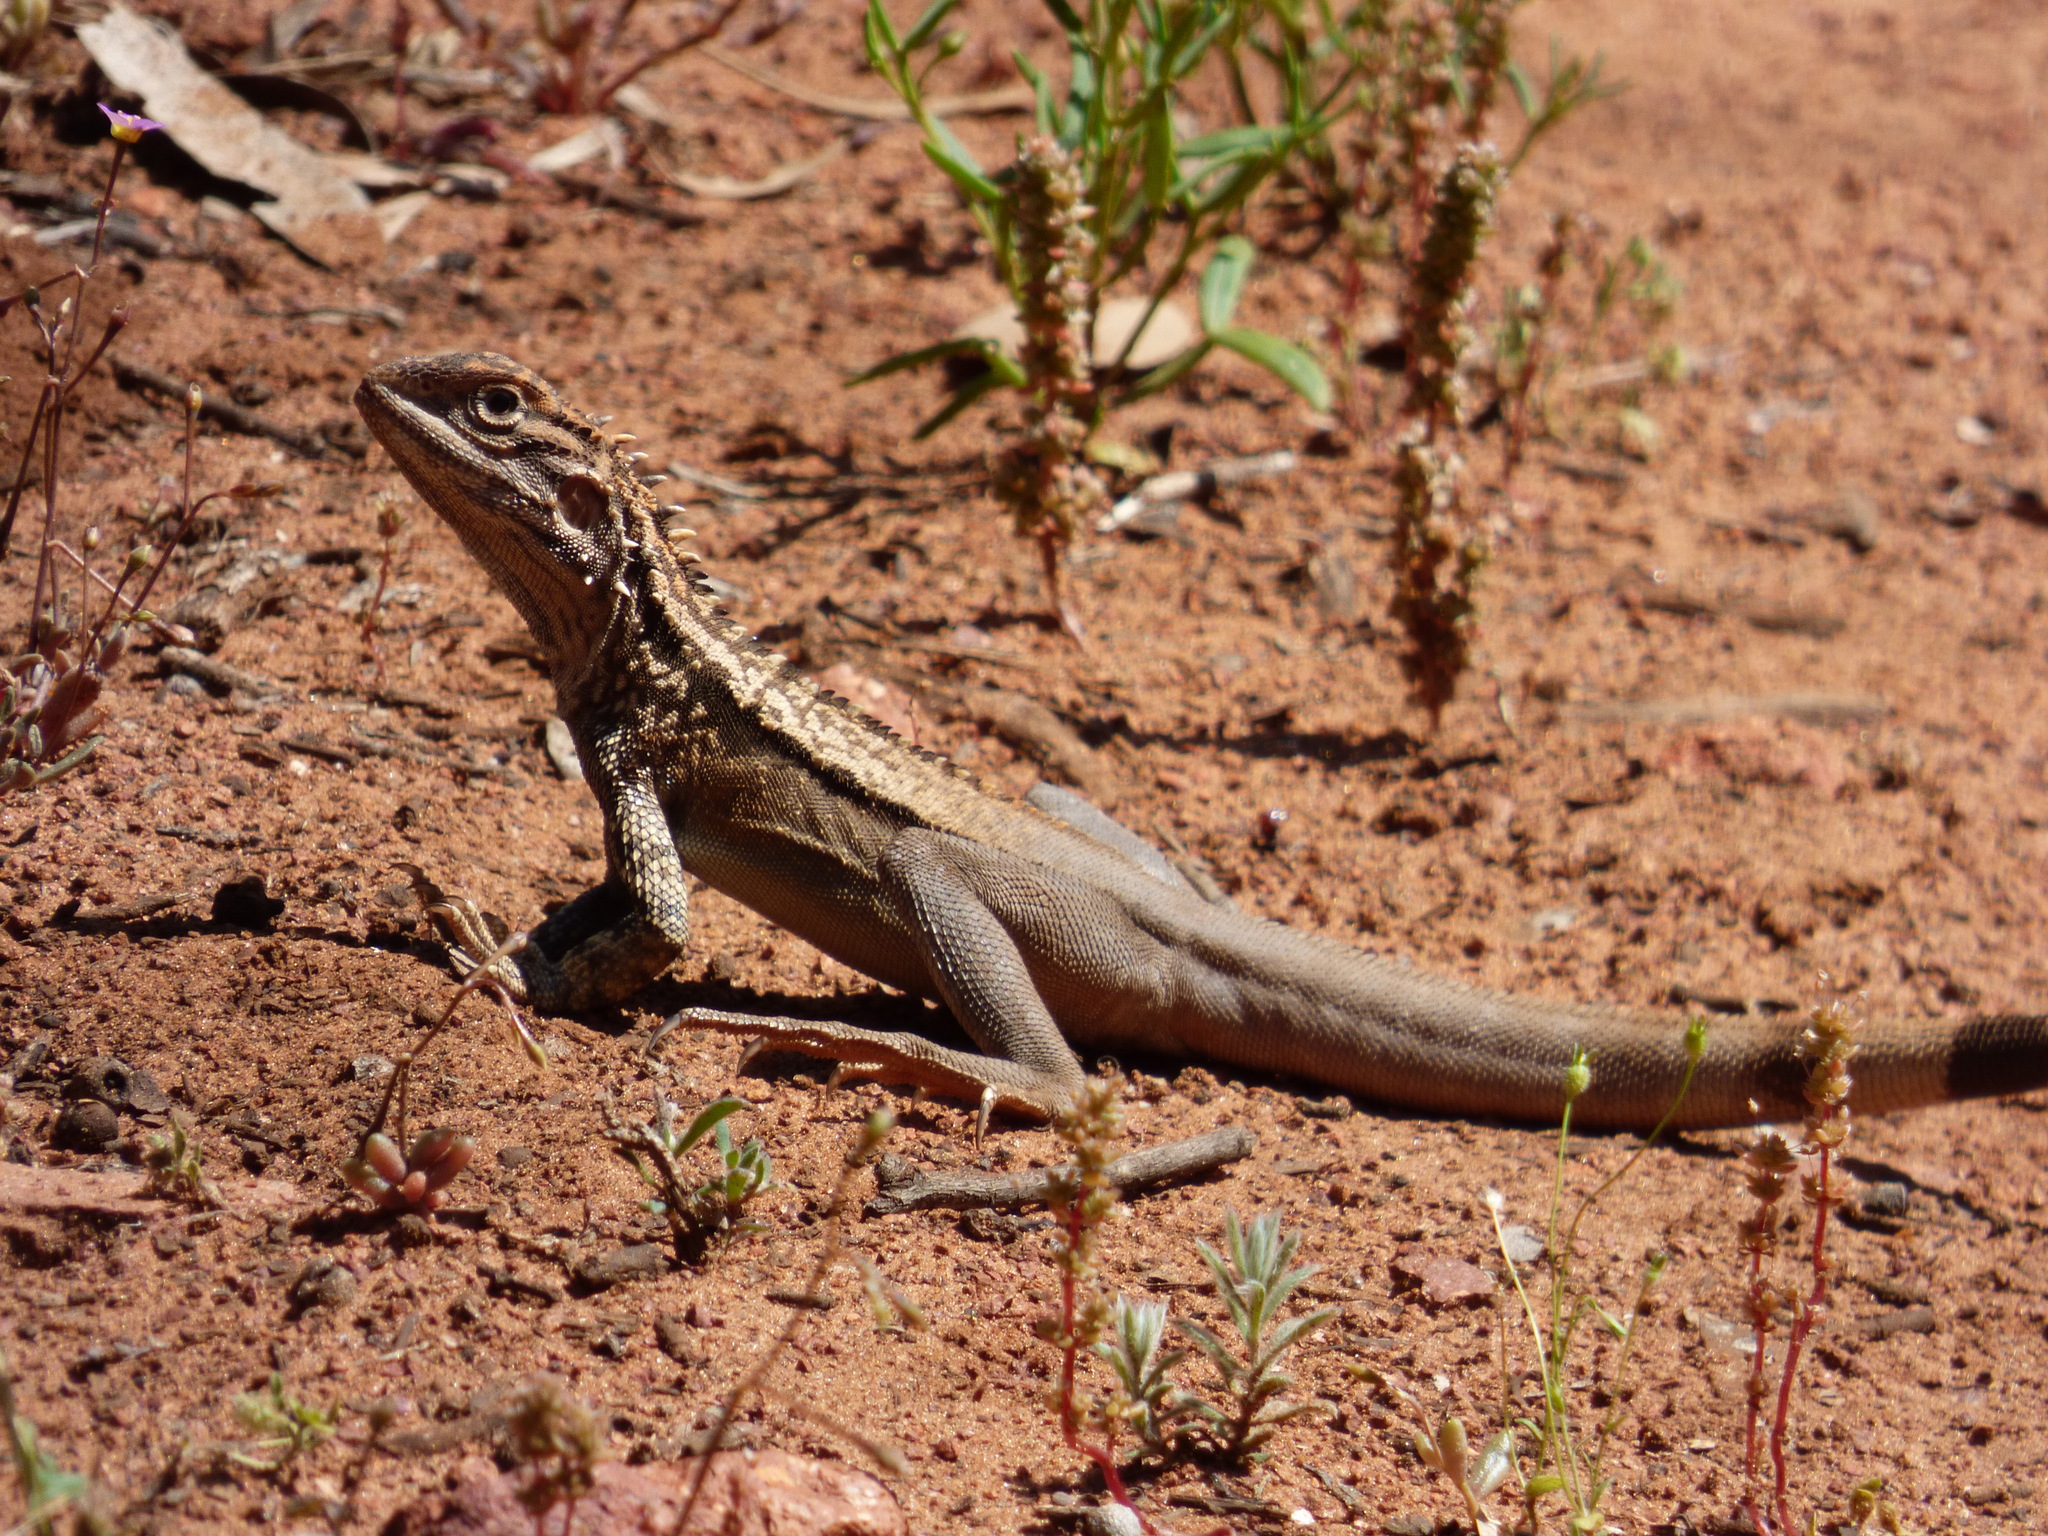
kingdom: Animalia
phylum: Chordata
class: Squamata
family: Agamidae
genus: Ctenophorus
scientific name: Ctenophorus cristatus
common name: Crested dragon
